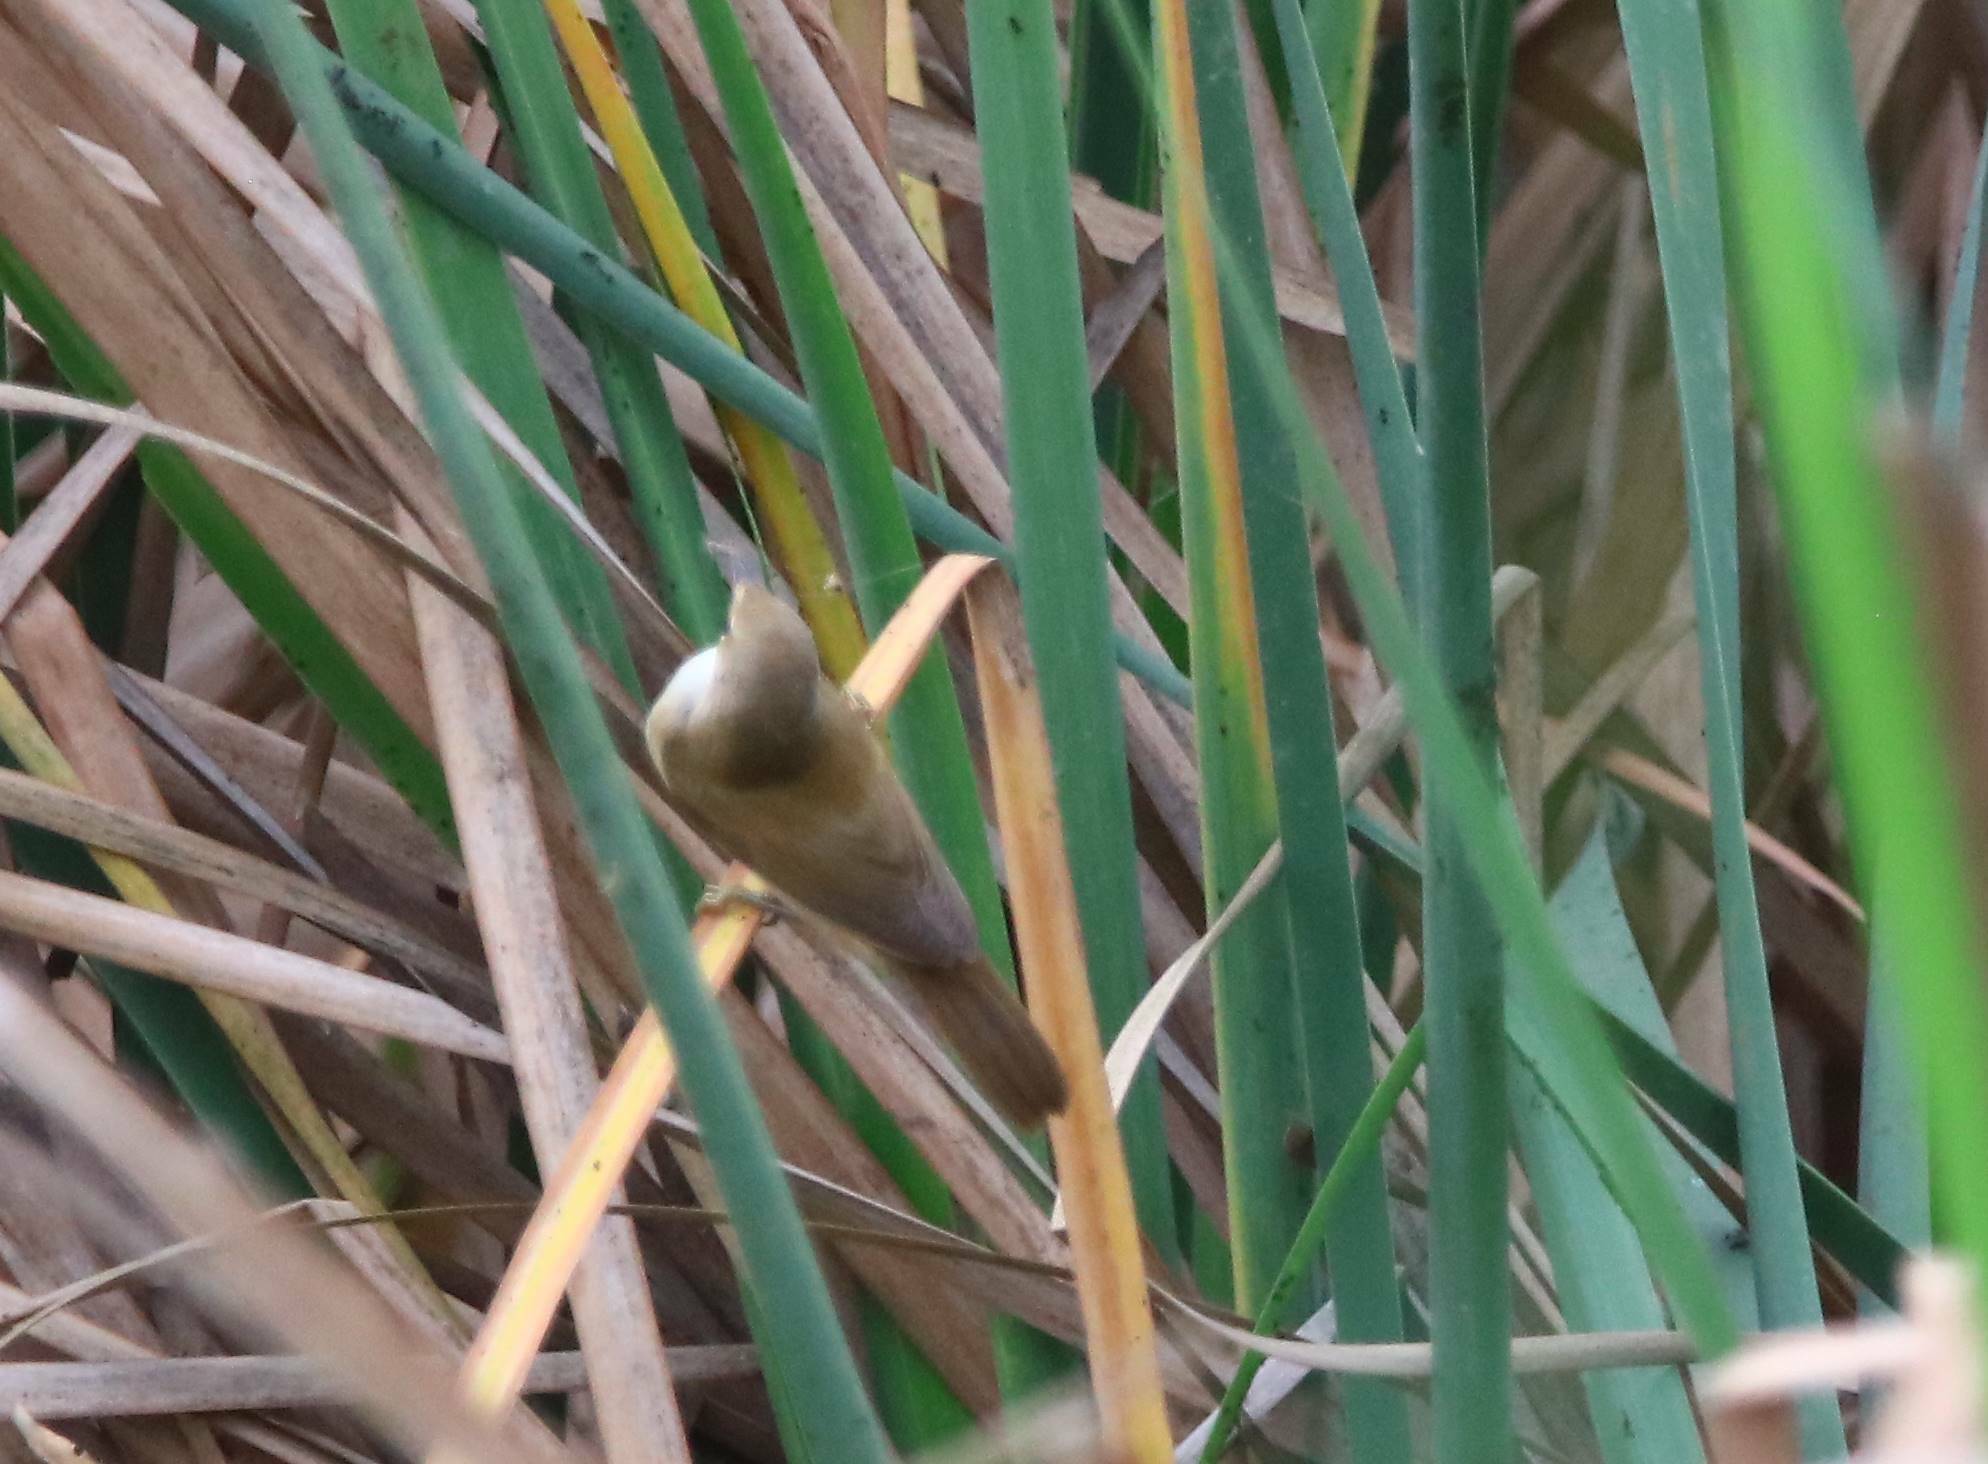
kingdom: Animalia
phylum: Chordata
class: Aves
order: Passeriformes
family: Acrocephalidae
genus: Acrocephalus
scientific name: Acrocephalus scirpaceus
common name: Eurasian reed warbler
